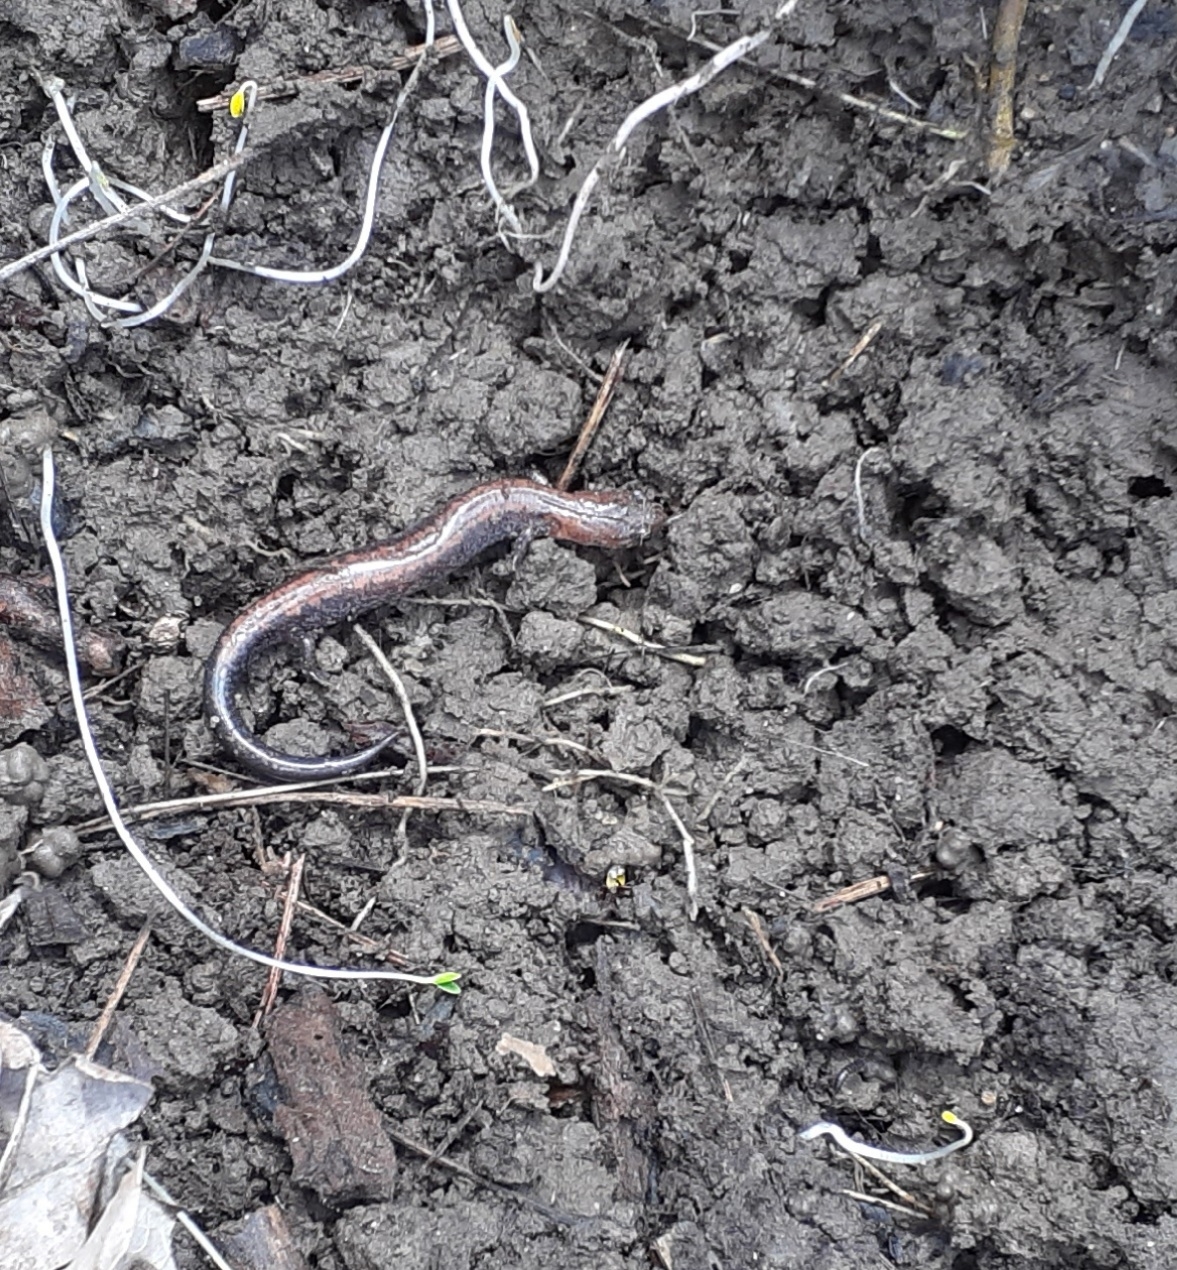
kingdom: Animalia
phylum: Chordata
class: Amphibia
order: Caudata
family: Plethodontidae
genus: Plethodon
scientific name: Plethodon cinereus
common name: Redback salamander
